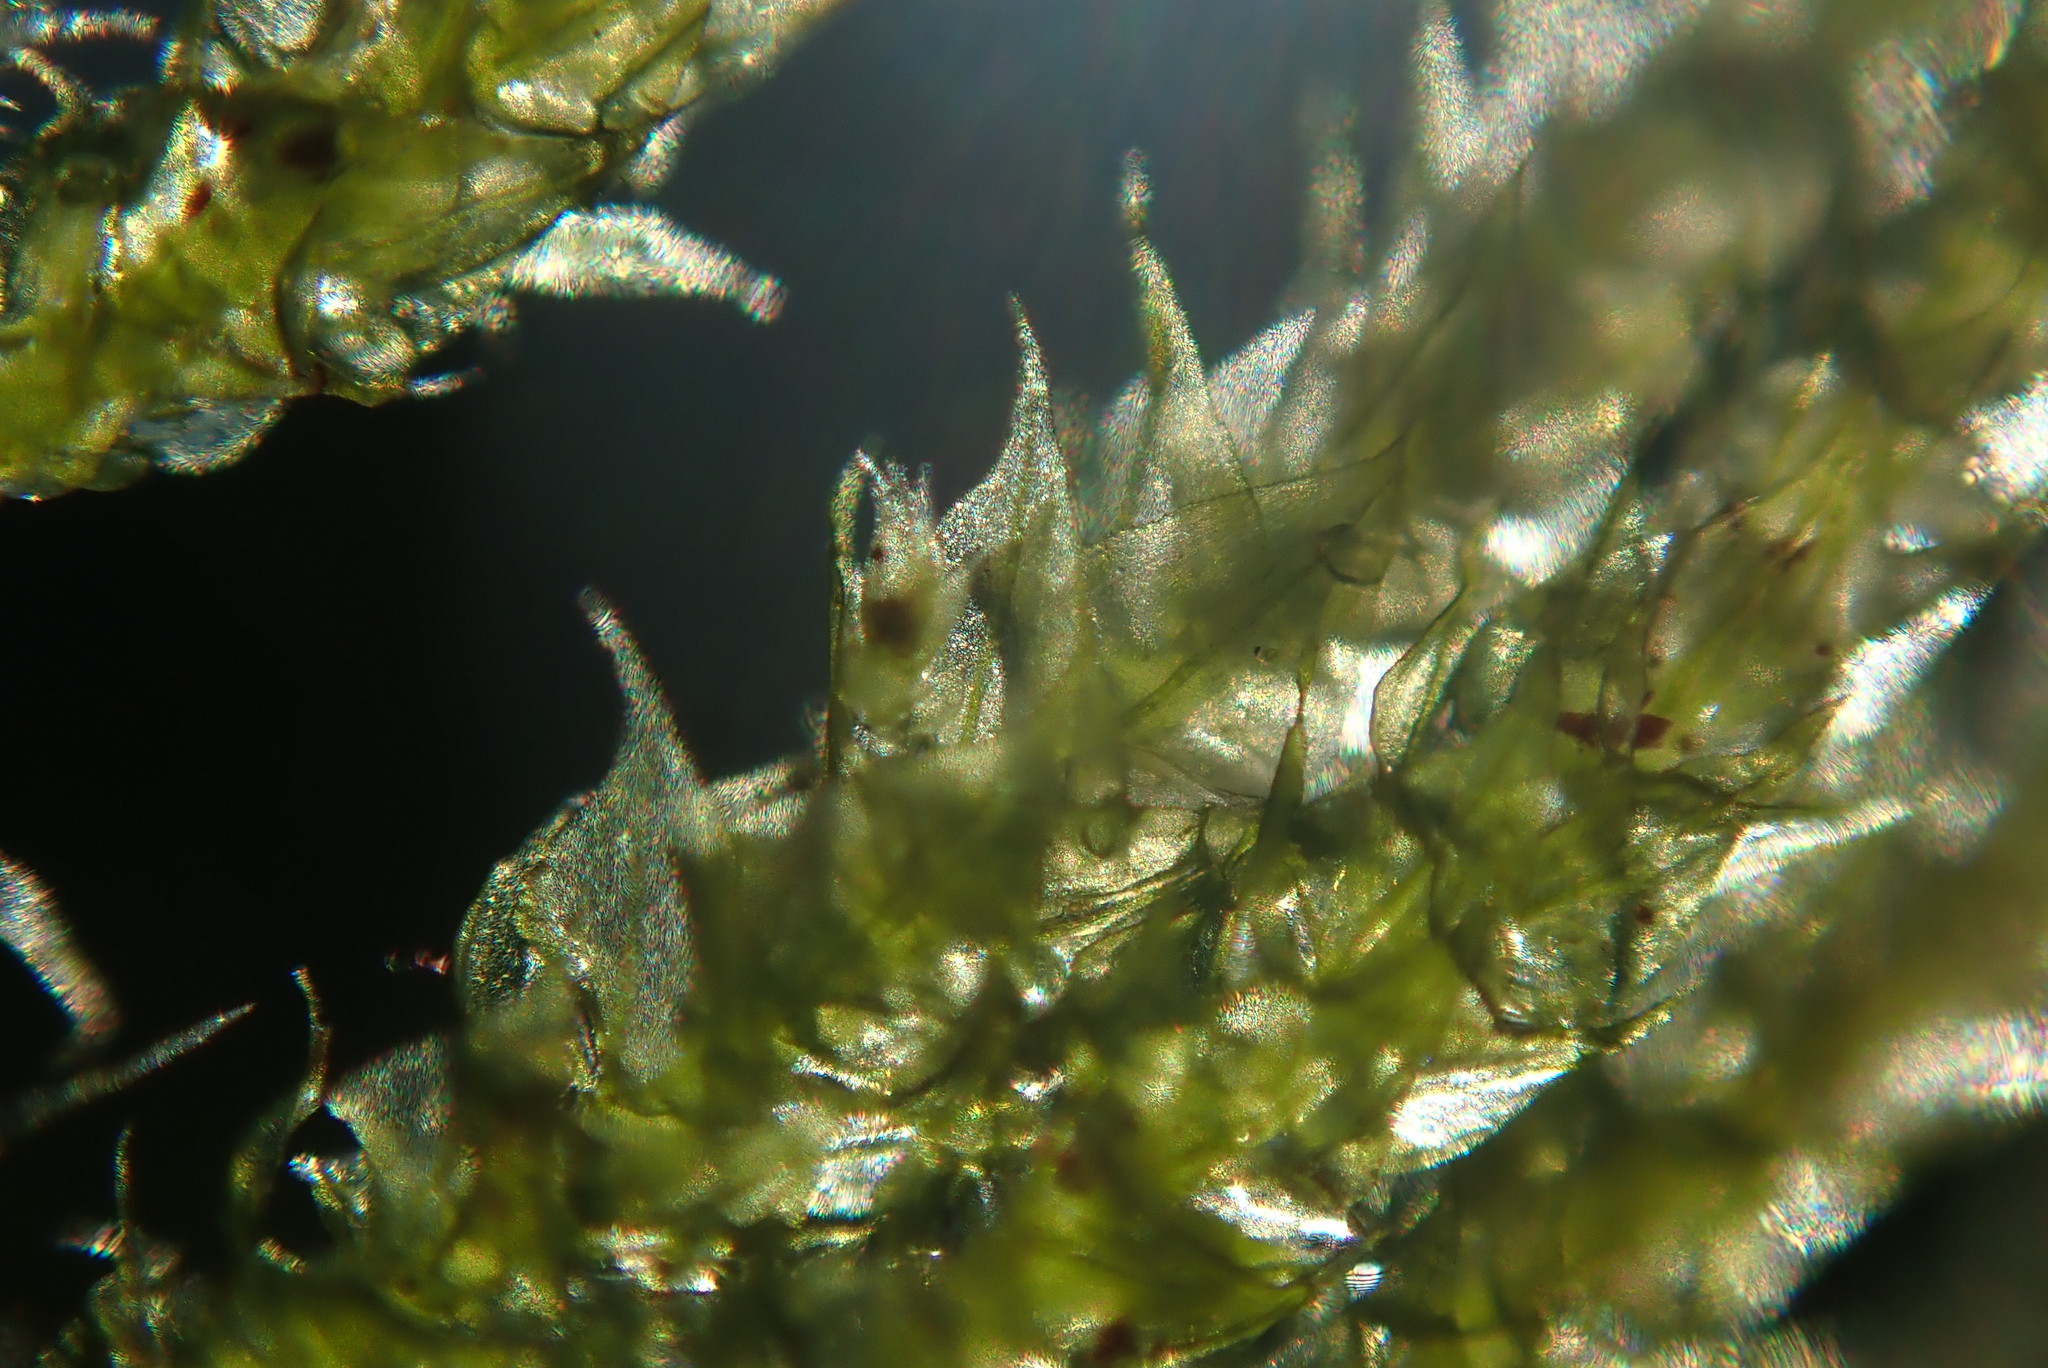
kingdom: Plantae
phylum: Bryophyta
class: Bryopsida
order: Hypnales
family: Brachytheciaceae
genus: Kindbergia
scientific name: Kindbergia oregana
